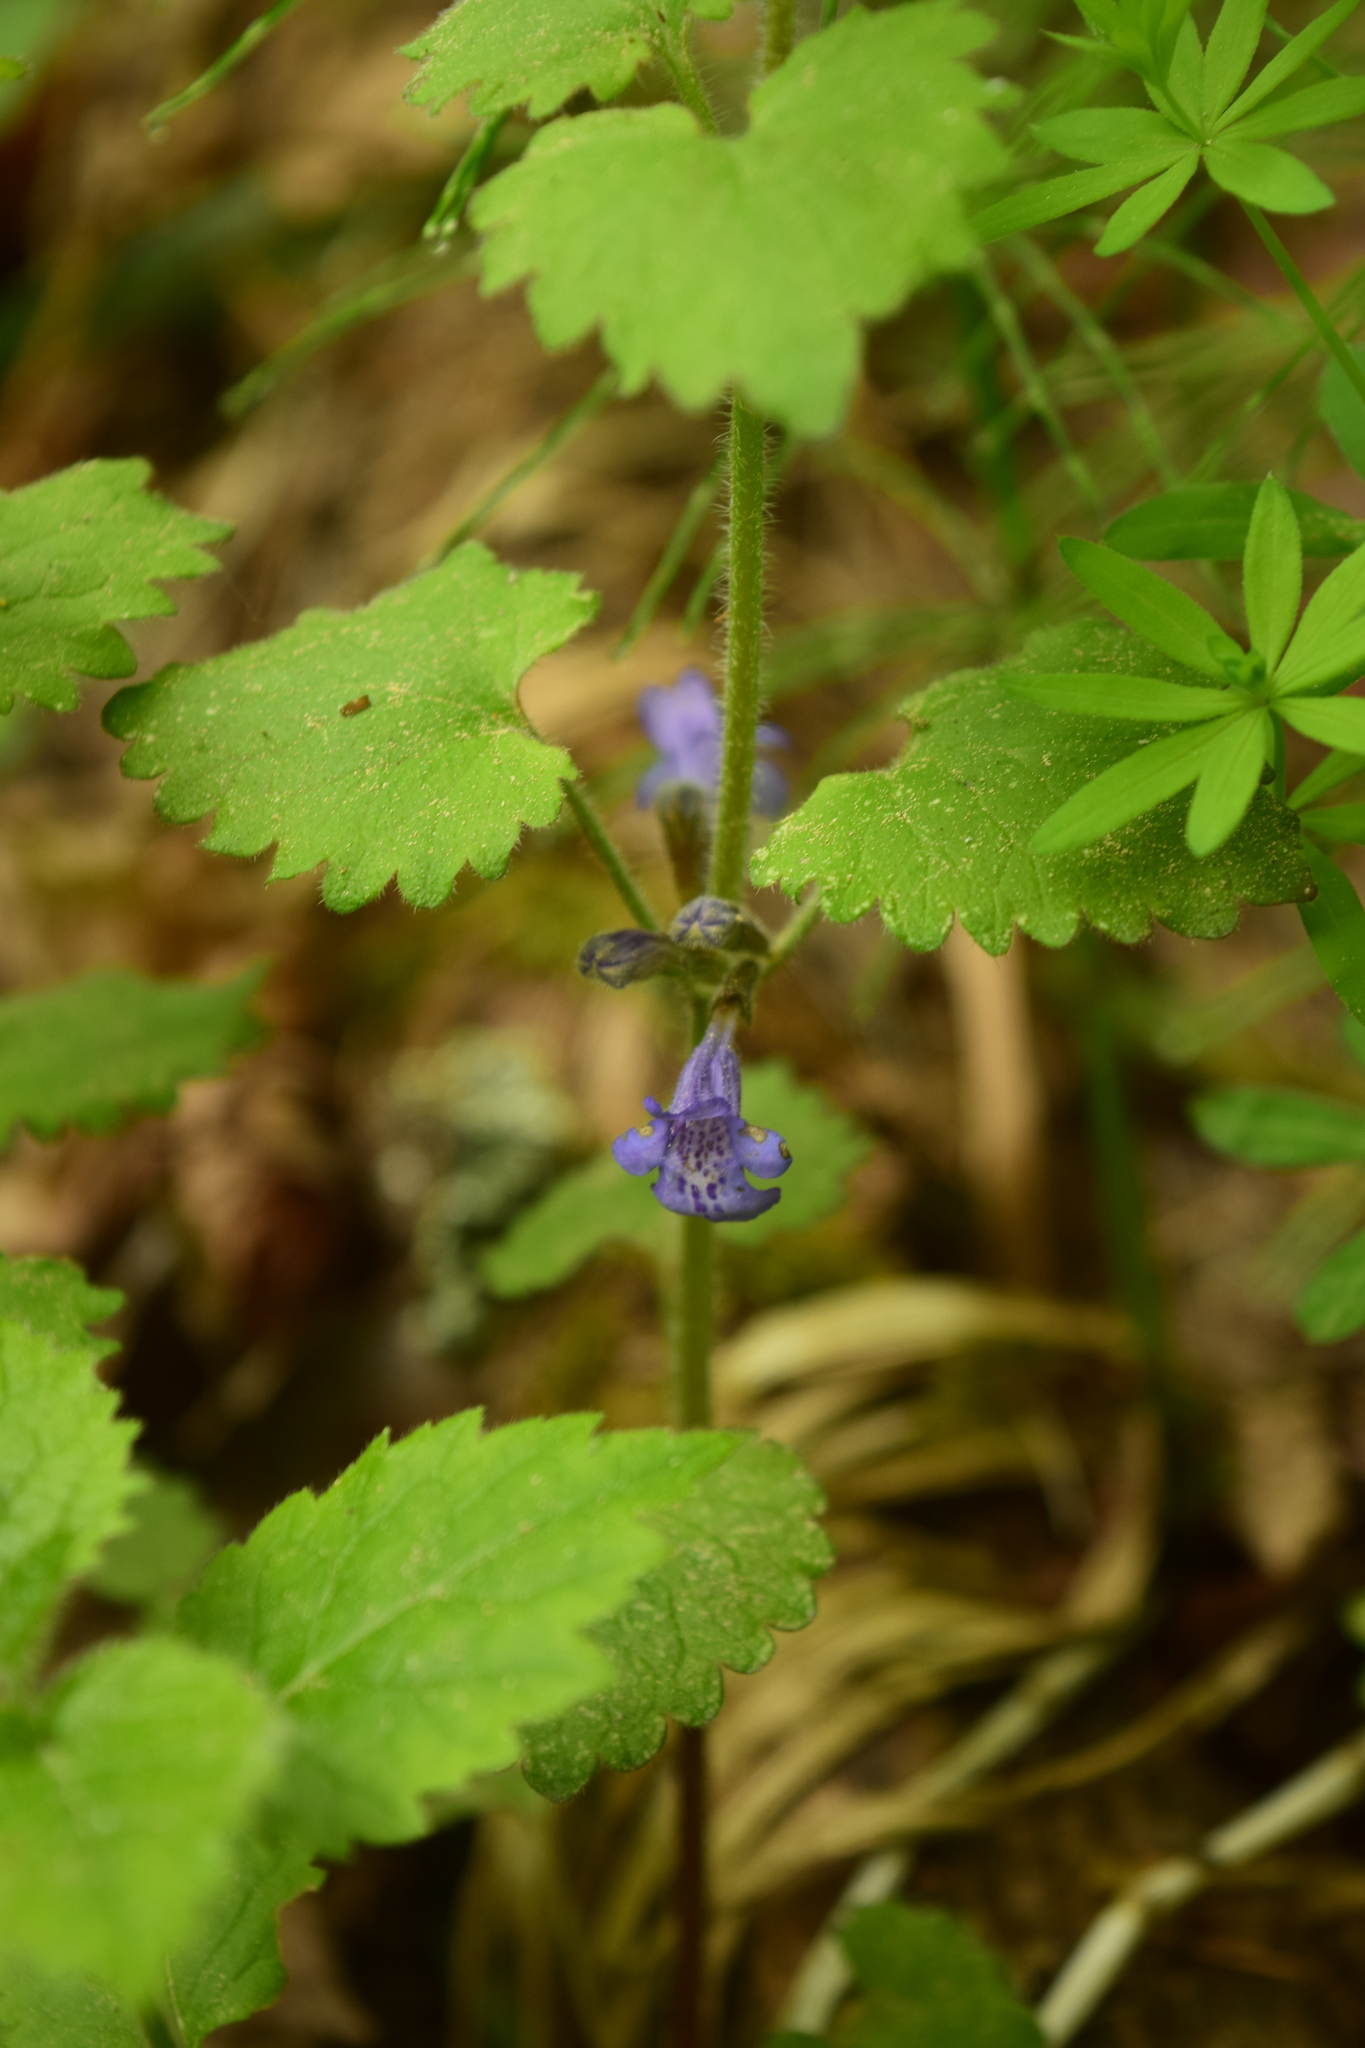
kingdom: Plantae
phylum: Tracheophyta
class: Magnoliopsida
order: Lamiales
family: Lamiaceae
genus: Glechoma
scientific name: Glechoma hederacea
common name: Ground ivy
